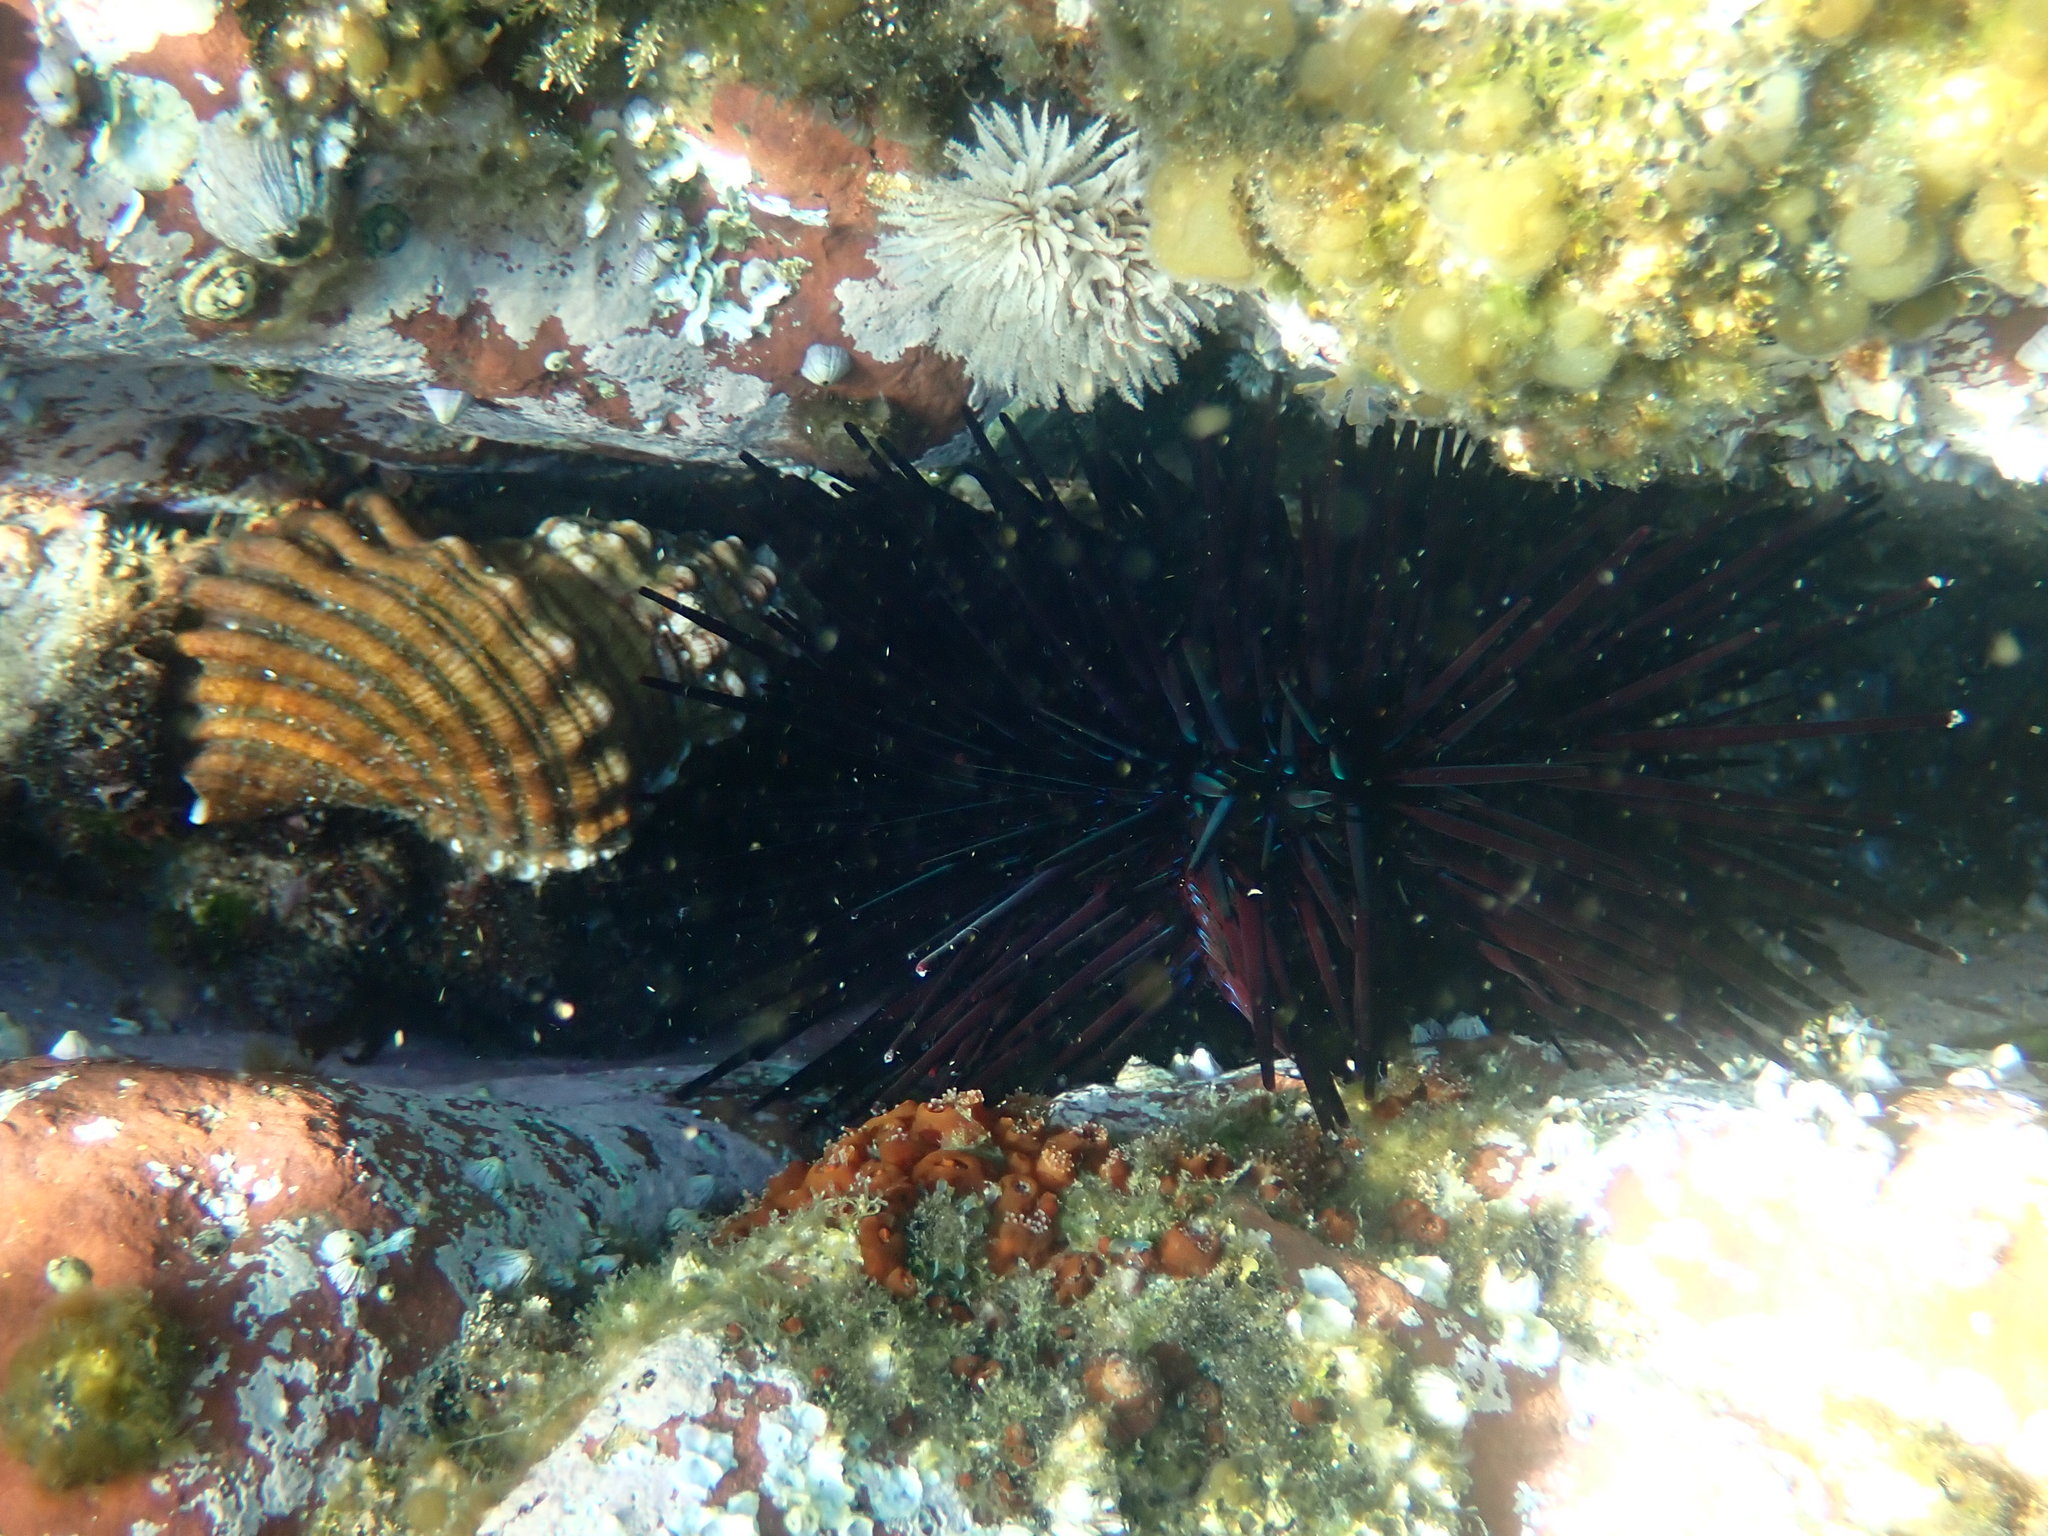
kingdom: Animalia
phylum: Echinodermata
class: Echinoidea
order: Diadematoida
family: Diadematidae
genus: Centrostephanus
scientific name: Centrostephanus rodgersii
